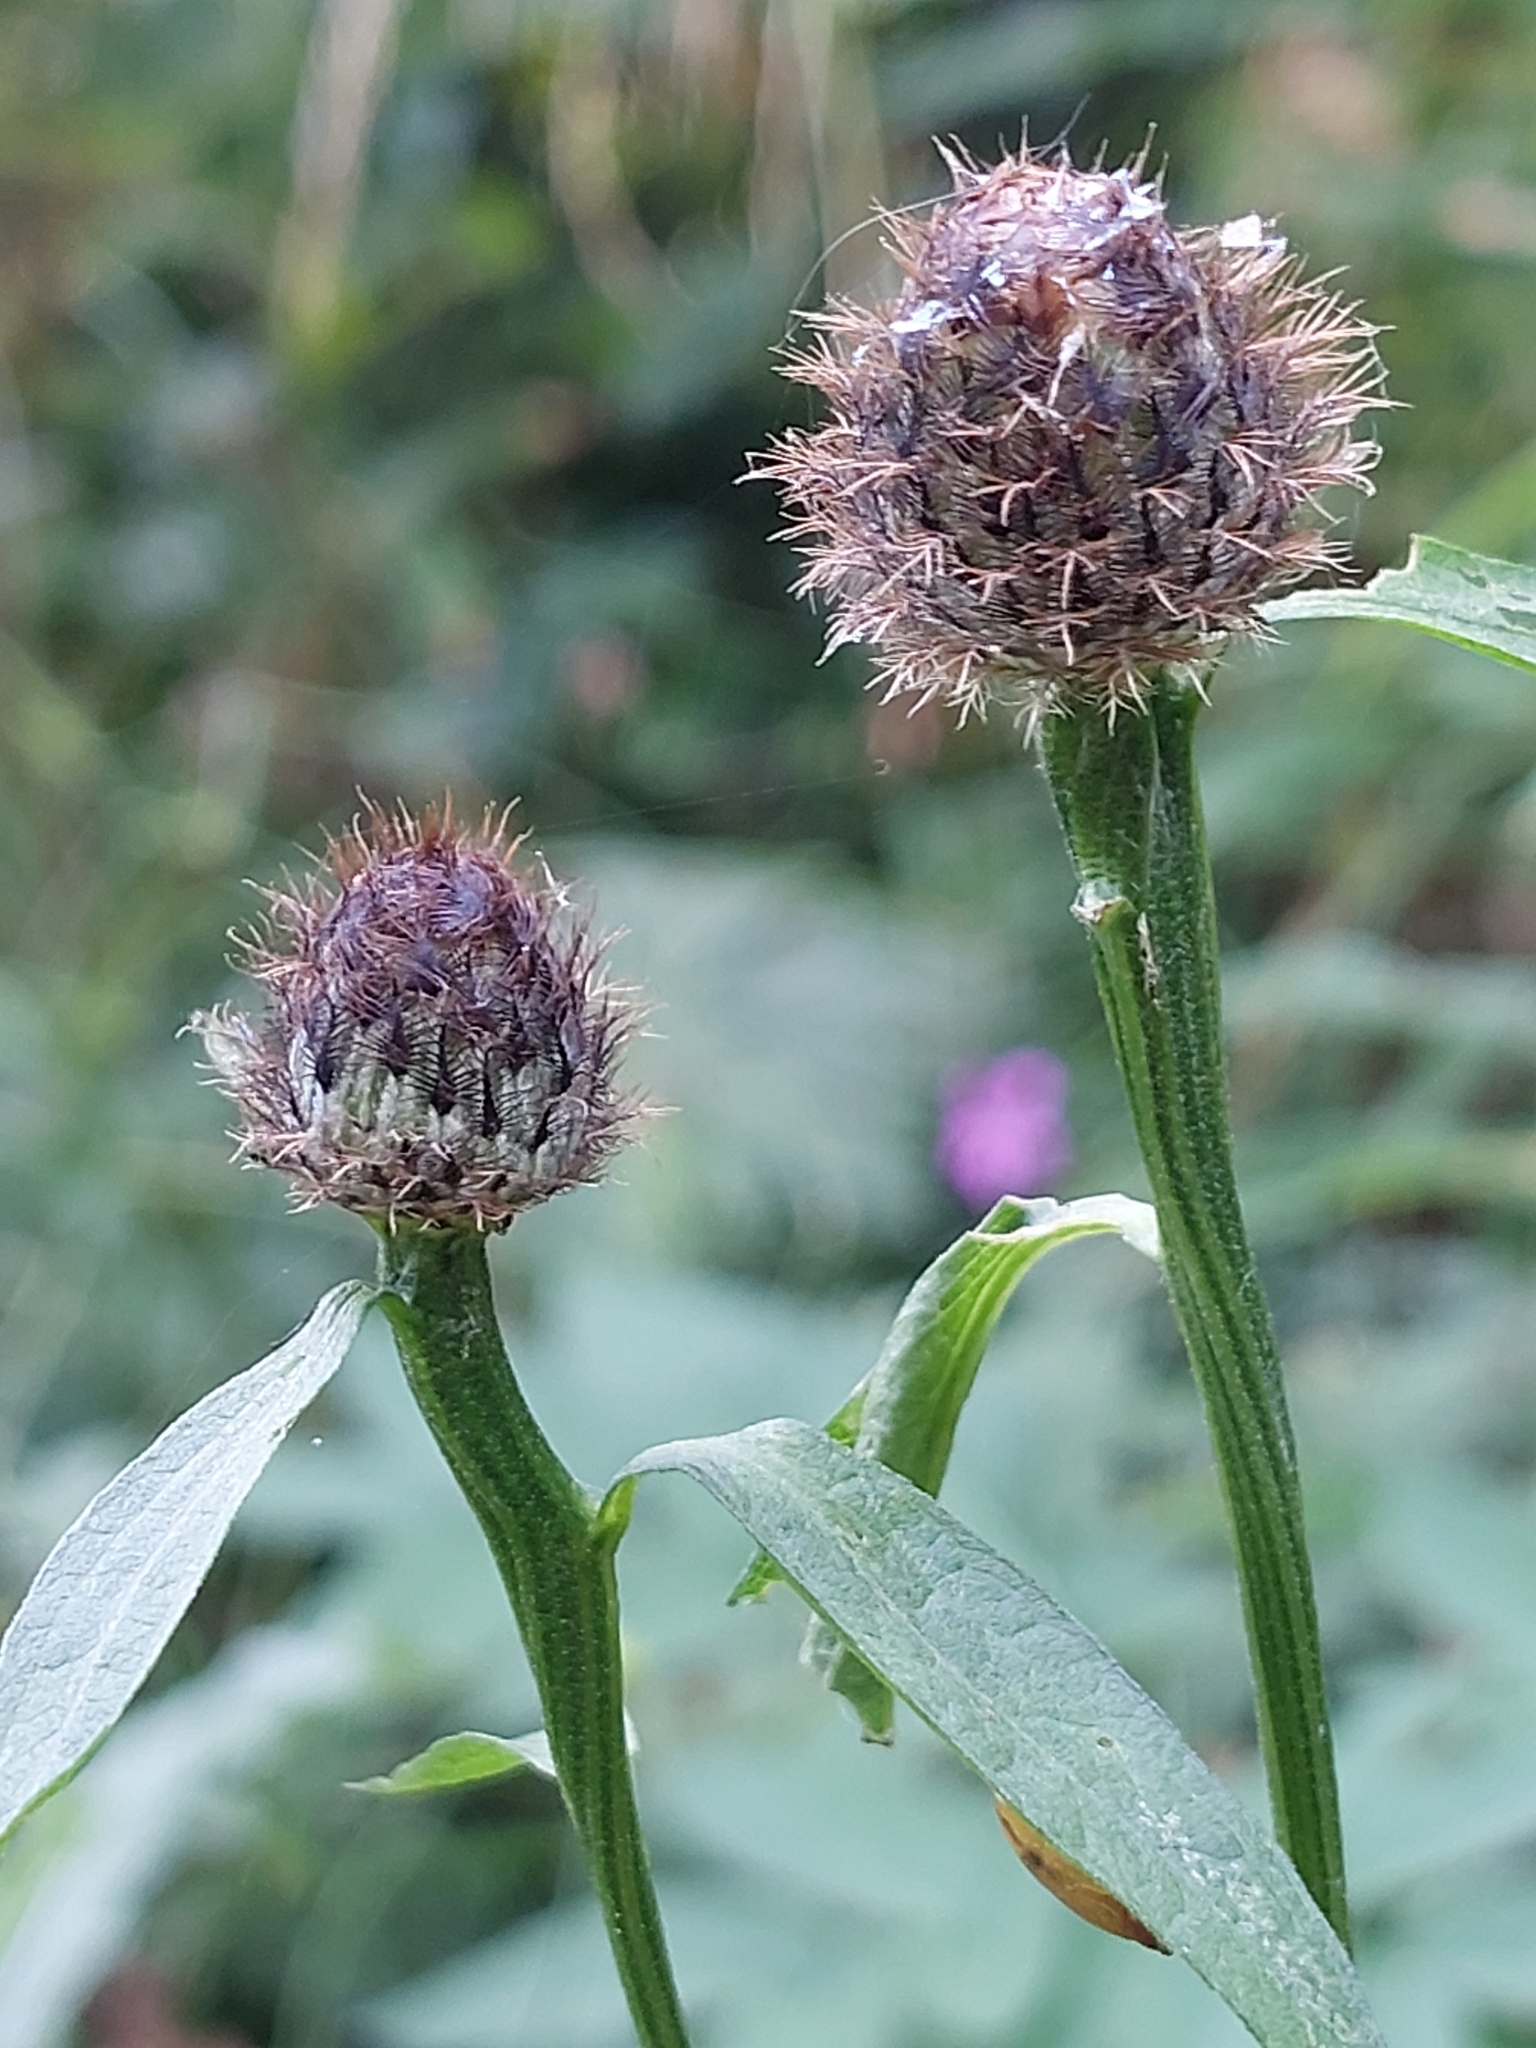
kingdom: Plantae
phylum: Tracheophyta
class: Magnoliopsida
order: Asterales
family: Asteraceae
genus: Centaurea
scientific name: Centaurea phrygia
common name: Wig knapweed
